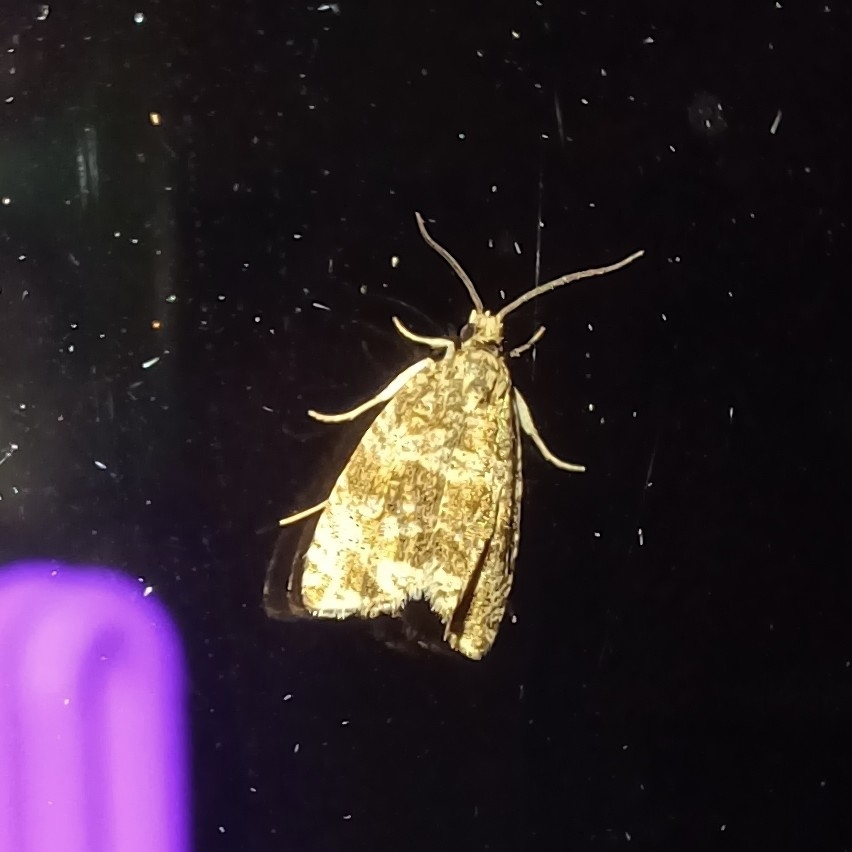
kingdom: Animalia
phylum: Arthropoda
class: Insecta
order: Lepidoptera
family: Tortricidae
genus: Syricoris
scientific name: Syricoris lacunana
